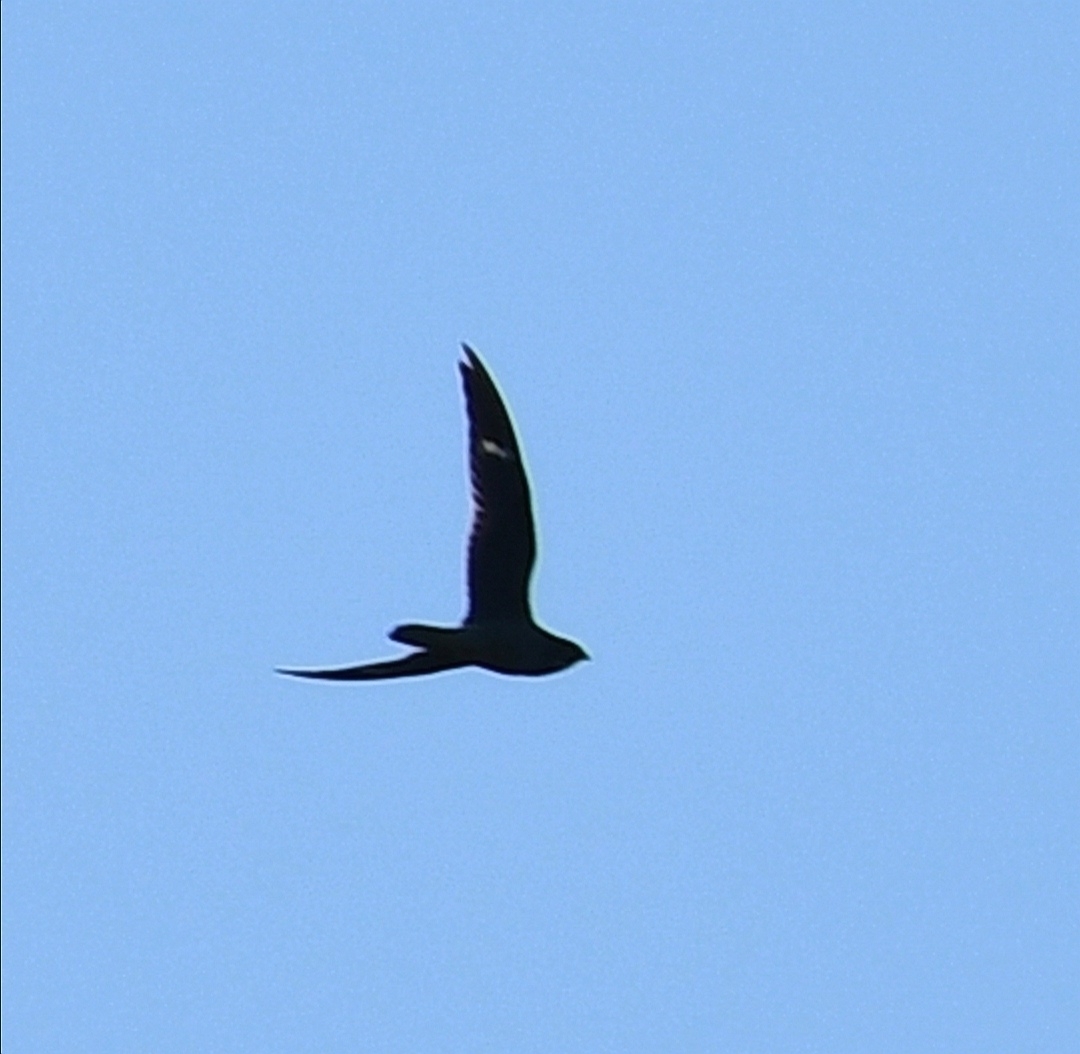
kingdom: Animalia
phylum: Chordata
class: Aves
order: Caprimulgiformes
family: Caprimulgidae
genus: Chordeiles
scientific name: Chordeiles minor
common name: Common nighthawk
